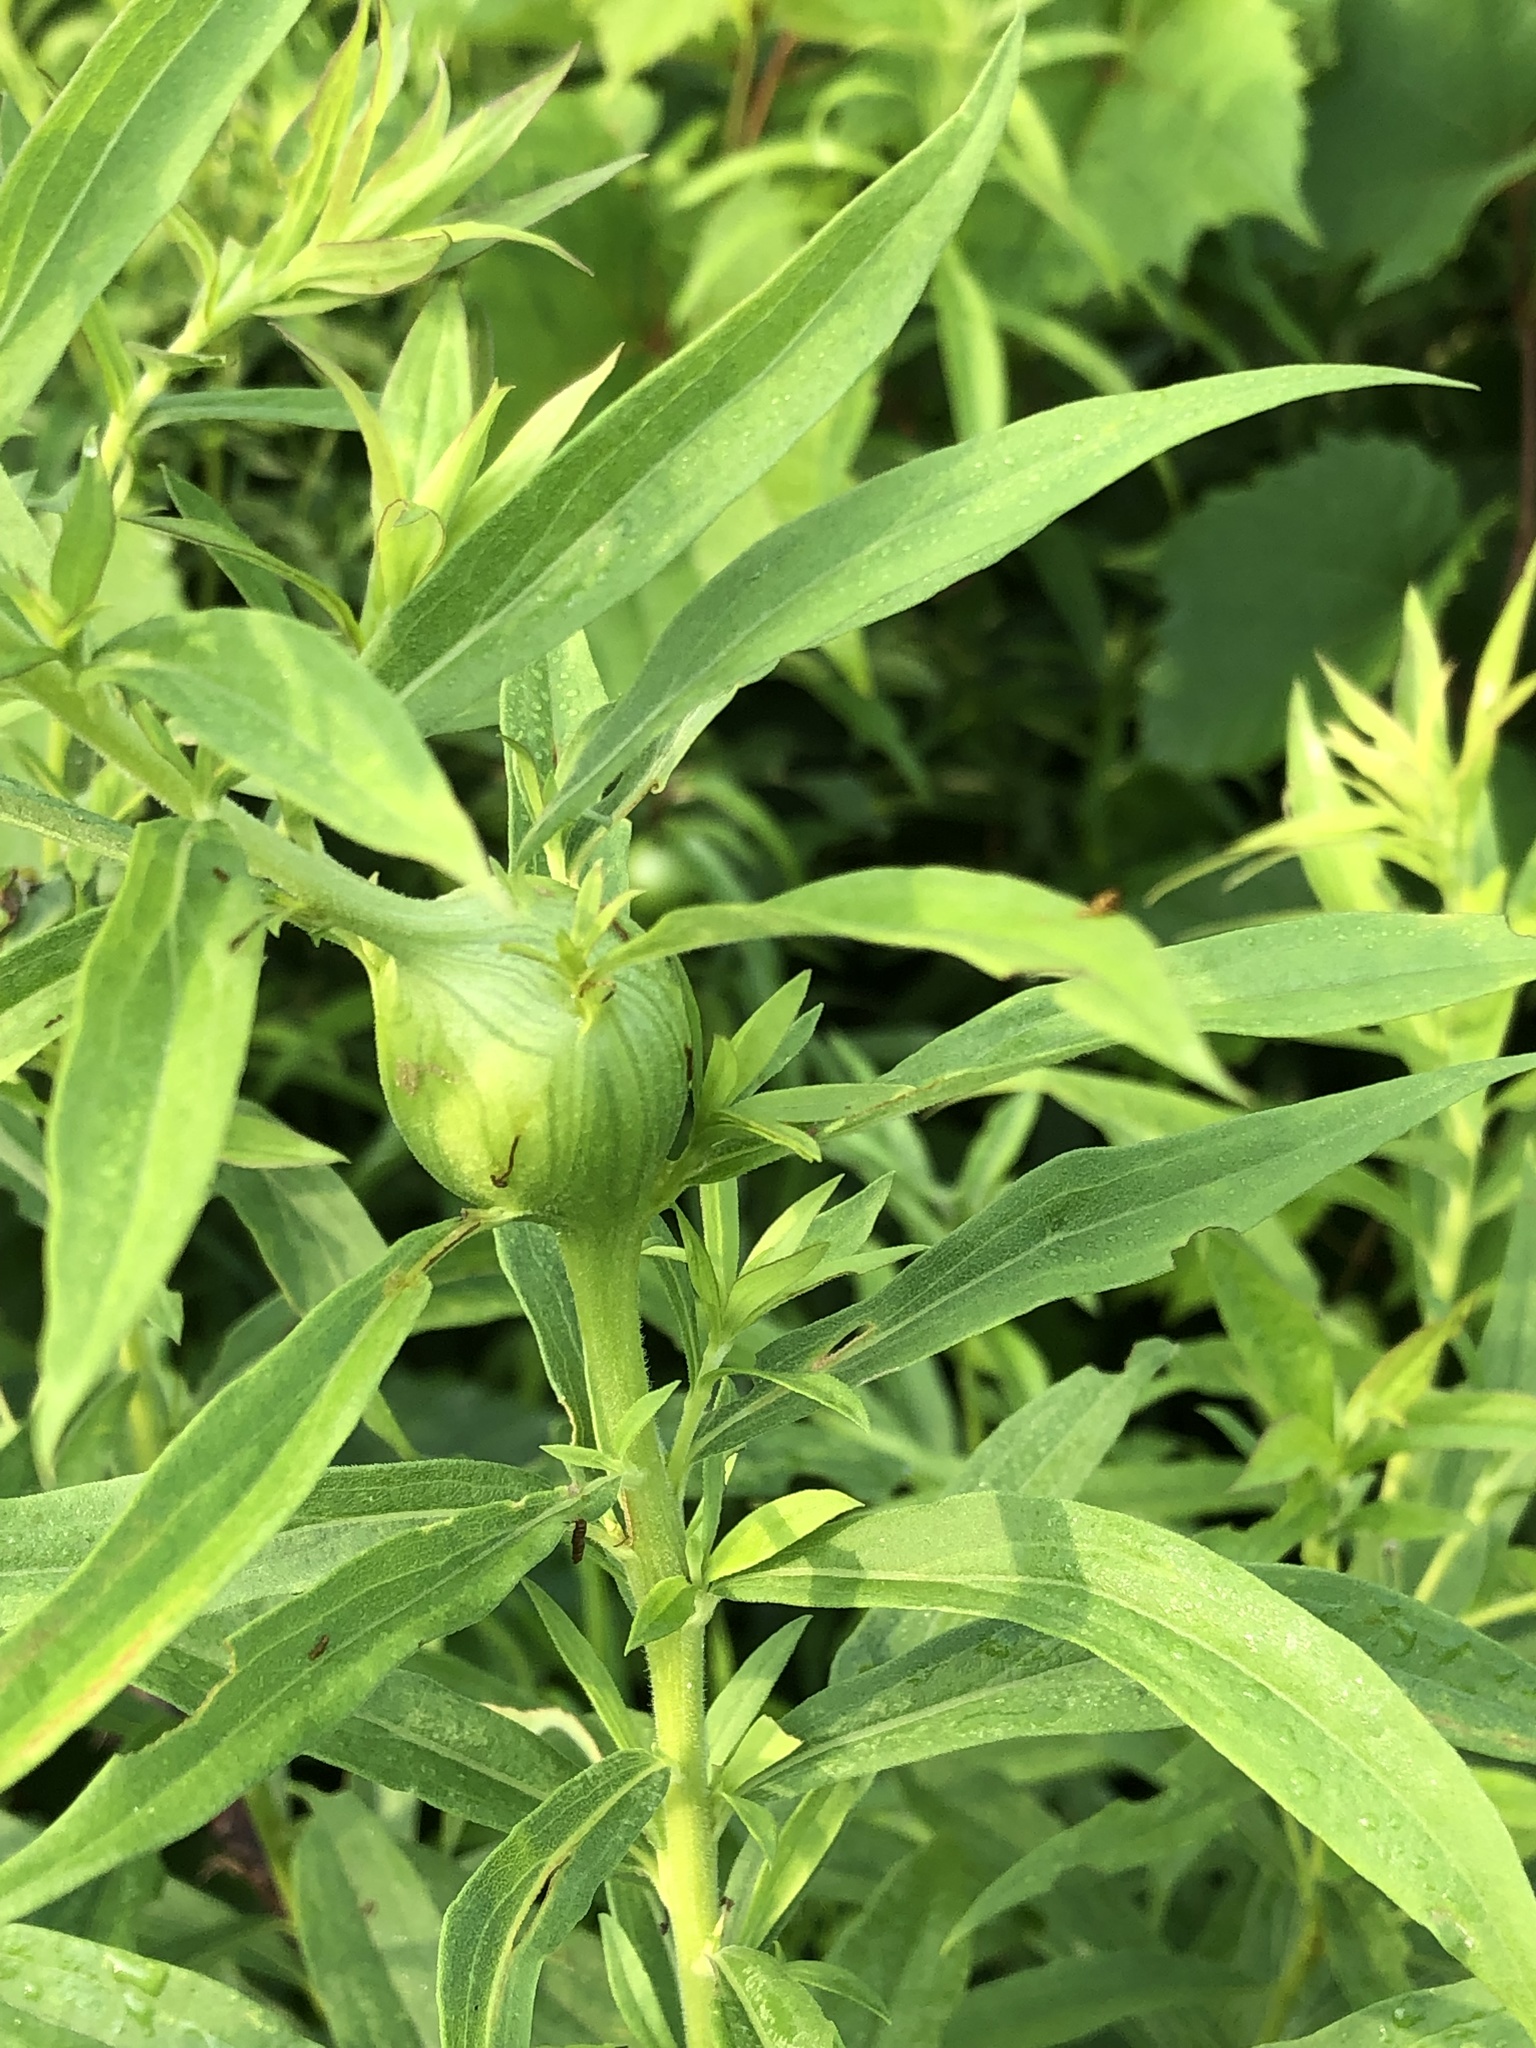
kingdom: Animalia
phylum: Arthropoda
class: Insecta
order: Diptera
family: Tephritidae
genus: Eurosta
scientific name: Eurosta solidaginis
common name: Goldenrod gall fly
